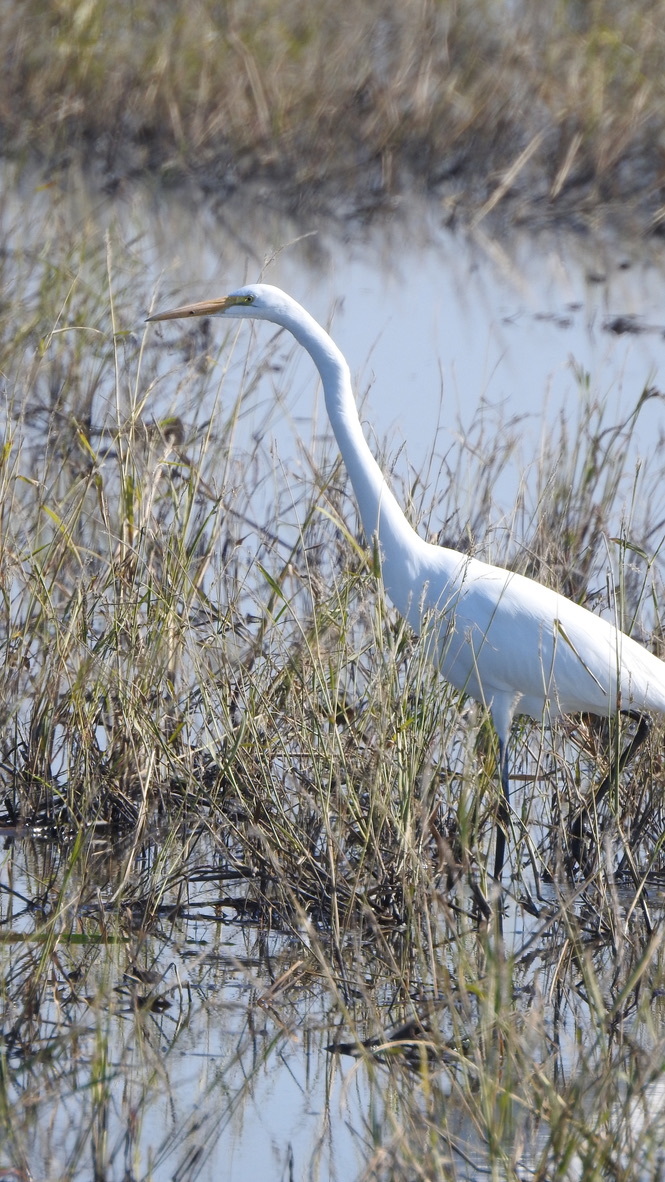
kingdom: Animalia
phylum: Chordata
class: Aves
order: Pelecaniformes
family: Ardeidae
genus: Ardea
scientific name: Ardea alba
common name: Great egret
